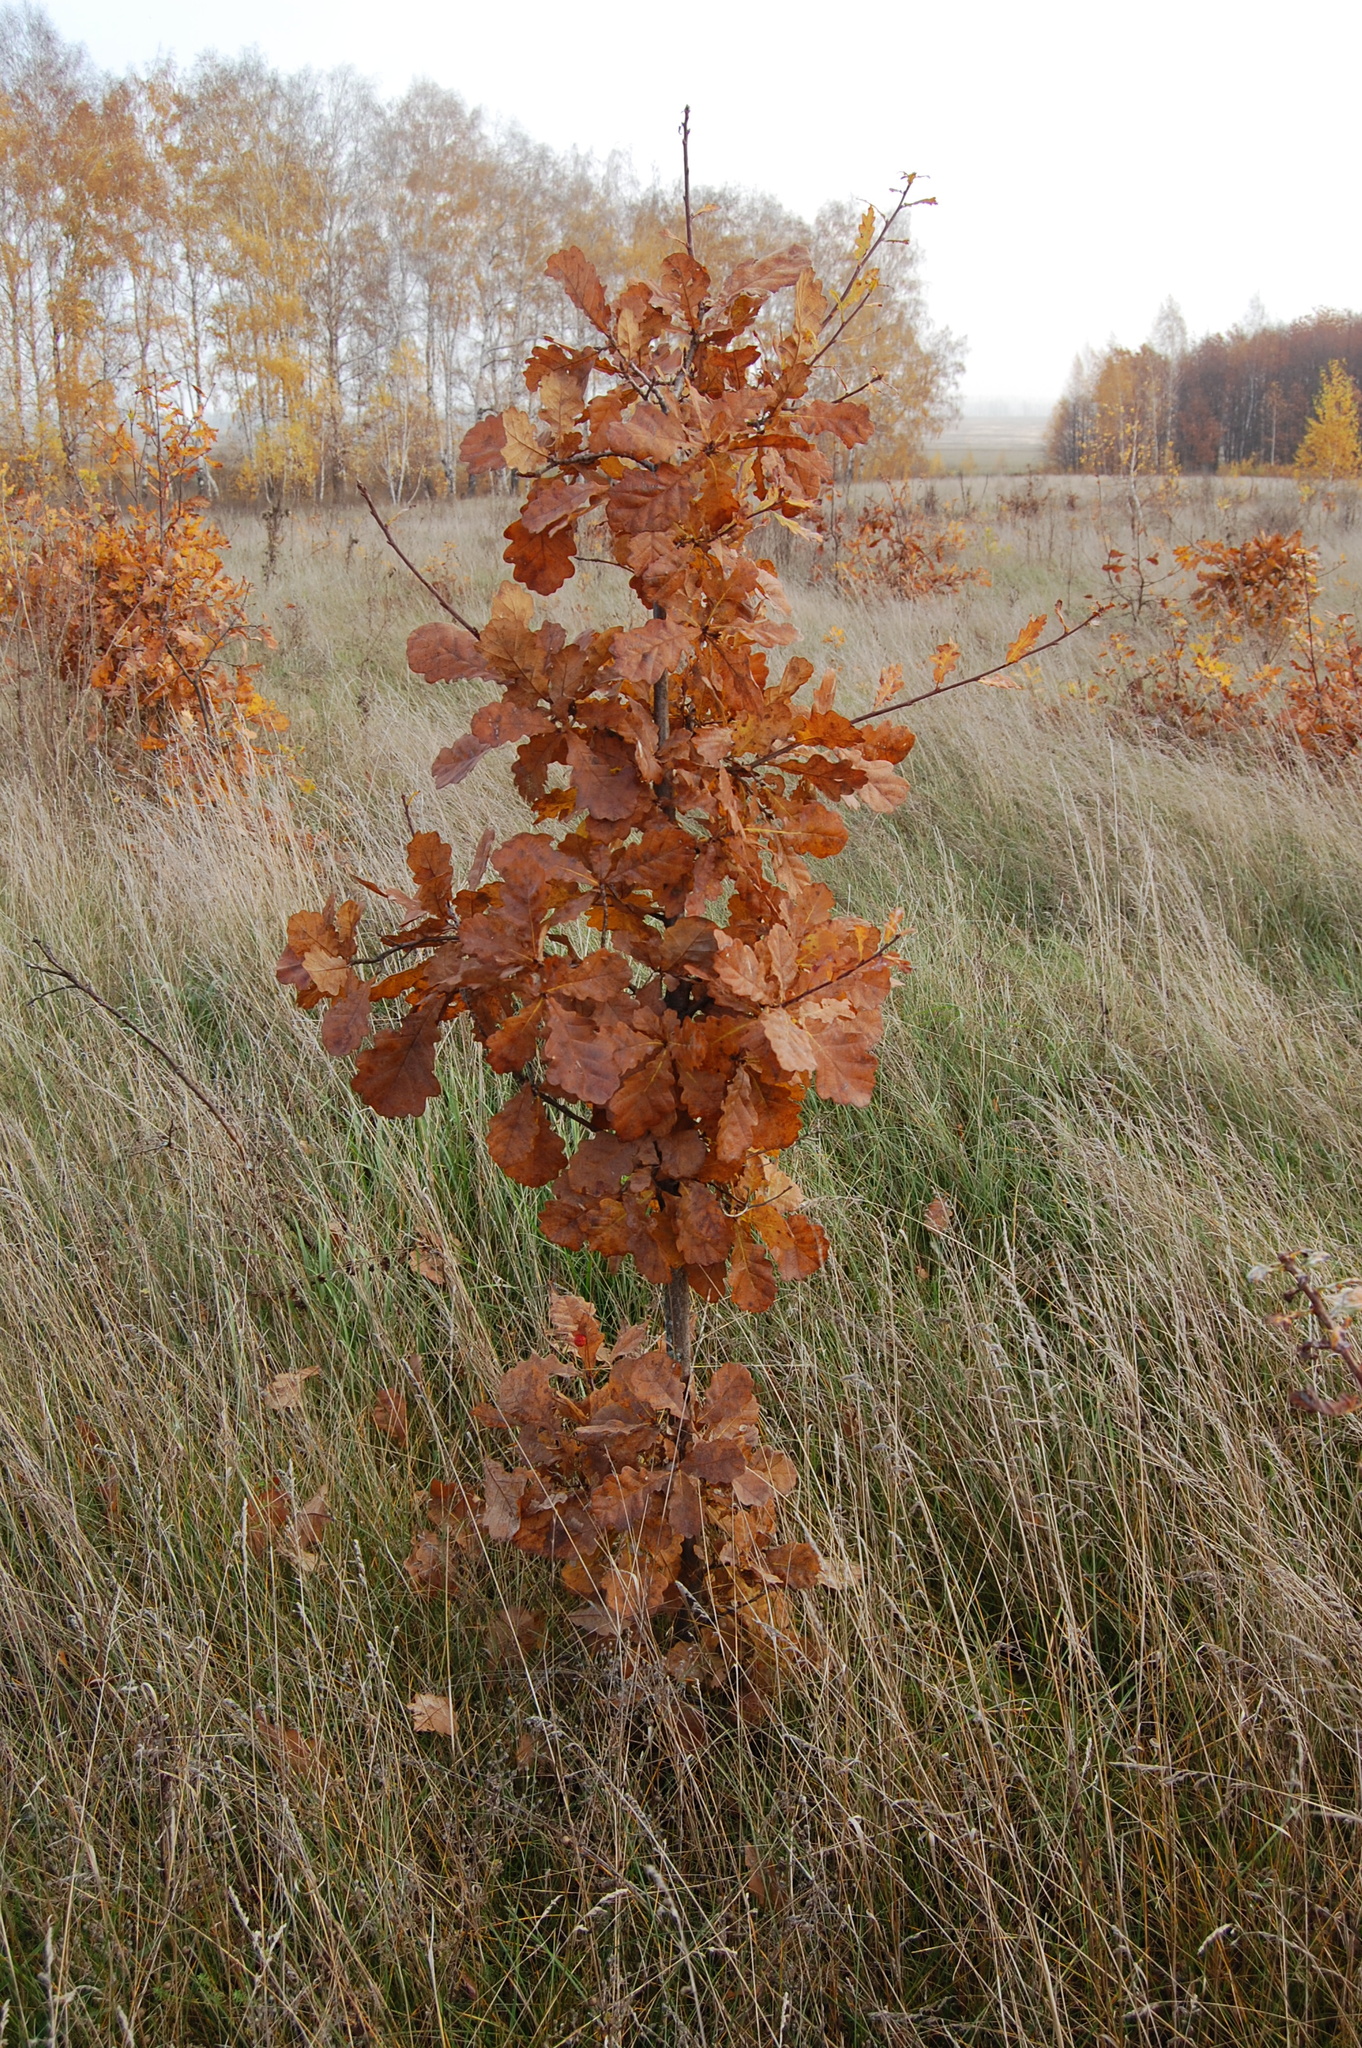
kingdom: Plantae
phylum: Tracheophyta
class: Magnoliopsida
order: Fagales
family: Fagaceae
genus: Quercus
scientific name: Quercus robur
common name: Pedunculate oak
